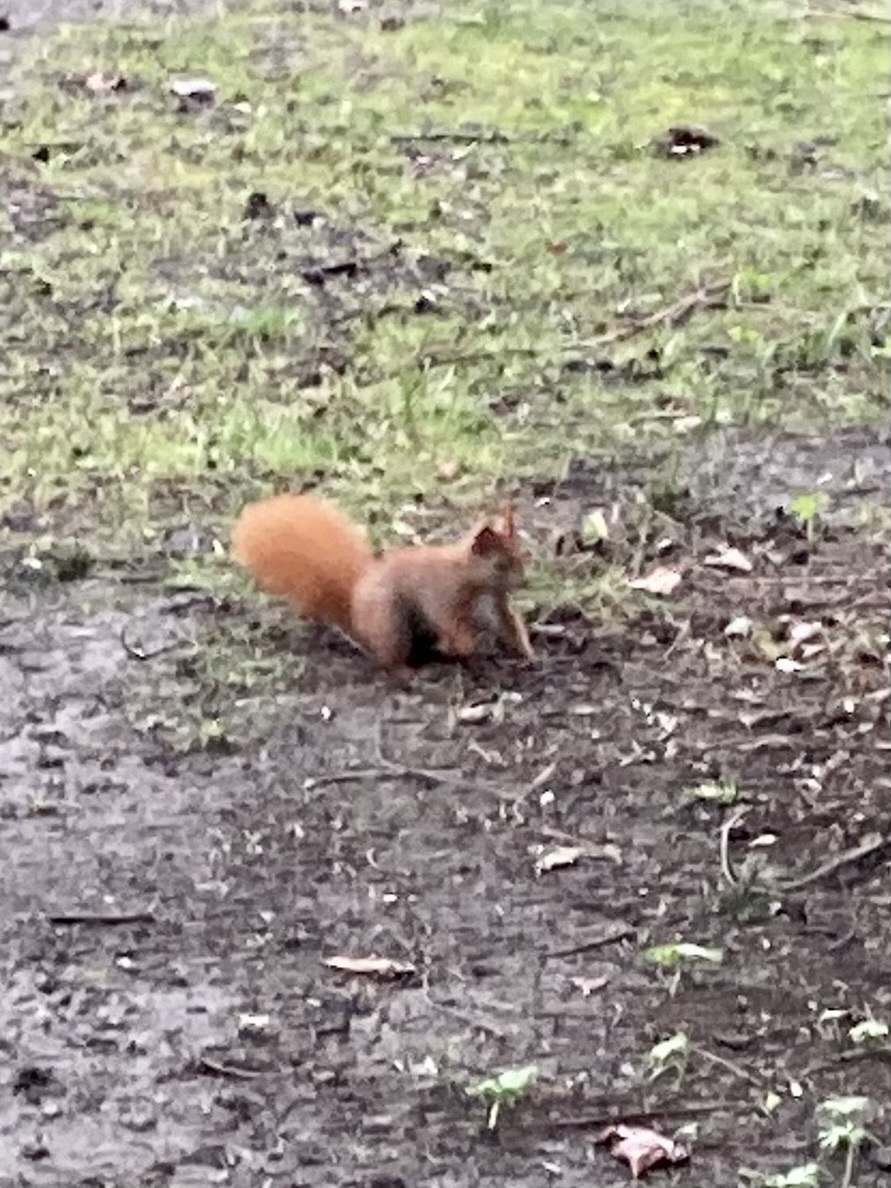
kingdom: Animalia
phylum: Chordata
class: Mammalia
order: Rodentia
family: Sciuridae
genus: Sciurus
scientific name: Sciurus vulgaris
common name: Eurasian red squirrel
